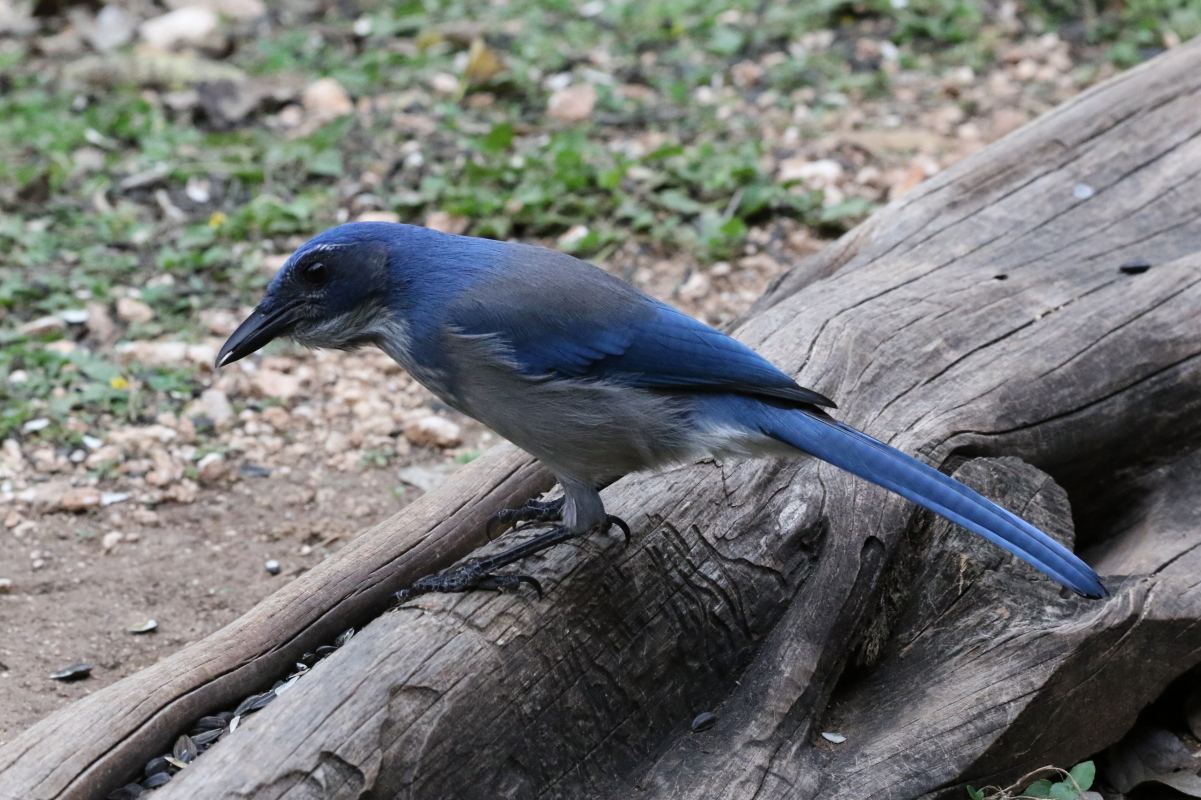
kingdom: Animalia
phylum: Chordata
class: Aves
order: Passeriformes
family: Corvidae
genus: Aphelocoma
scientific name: Aphelocoma woodhouseii
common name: Woodhouse's scrub-jay
